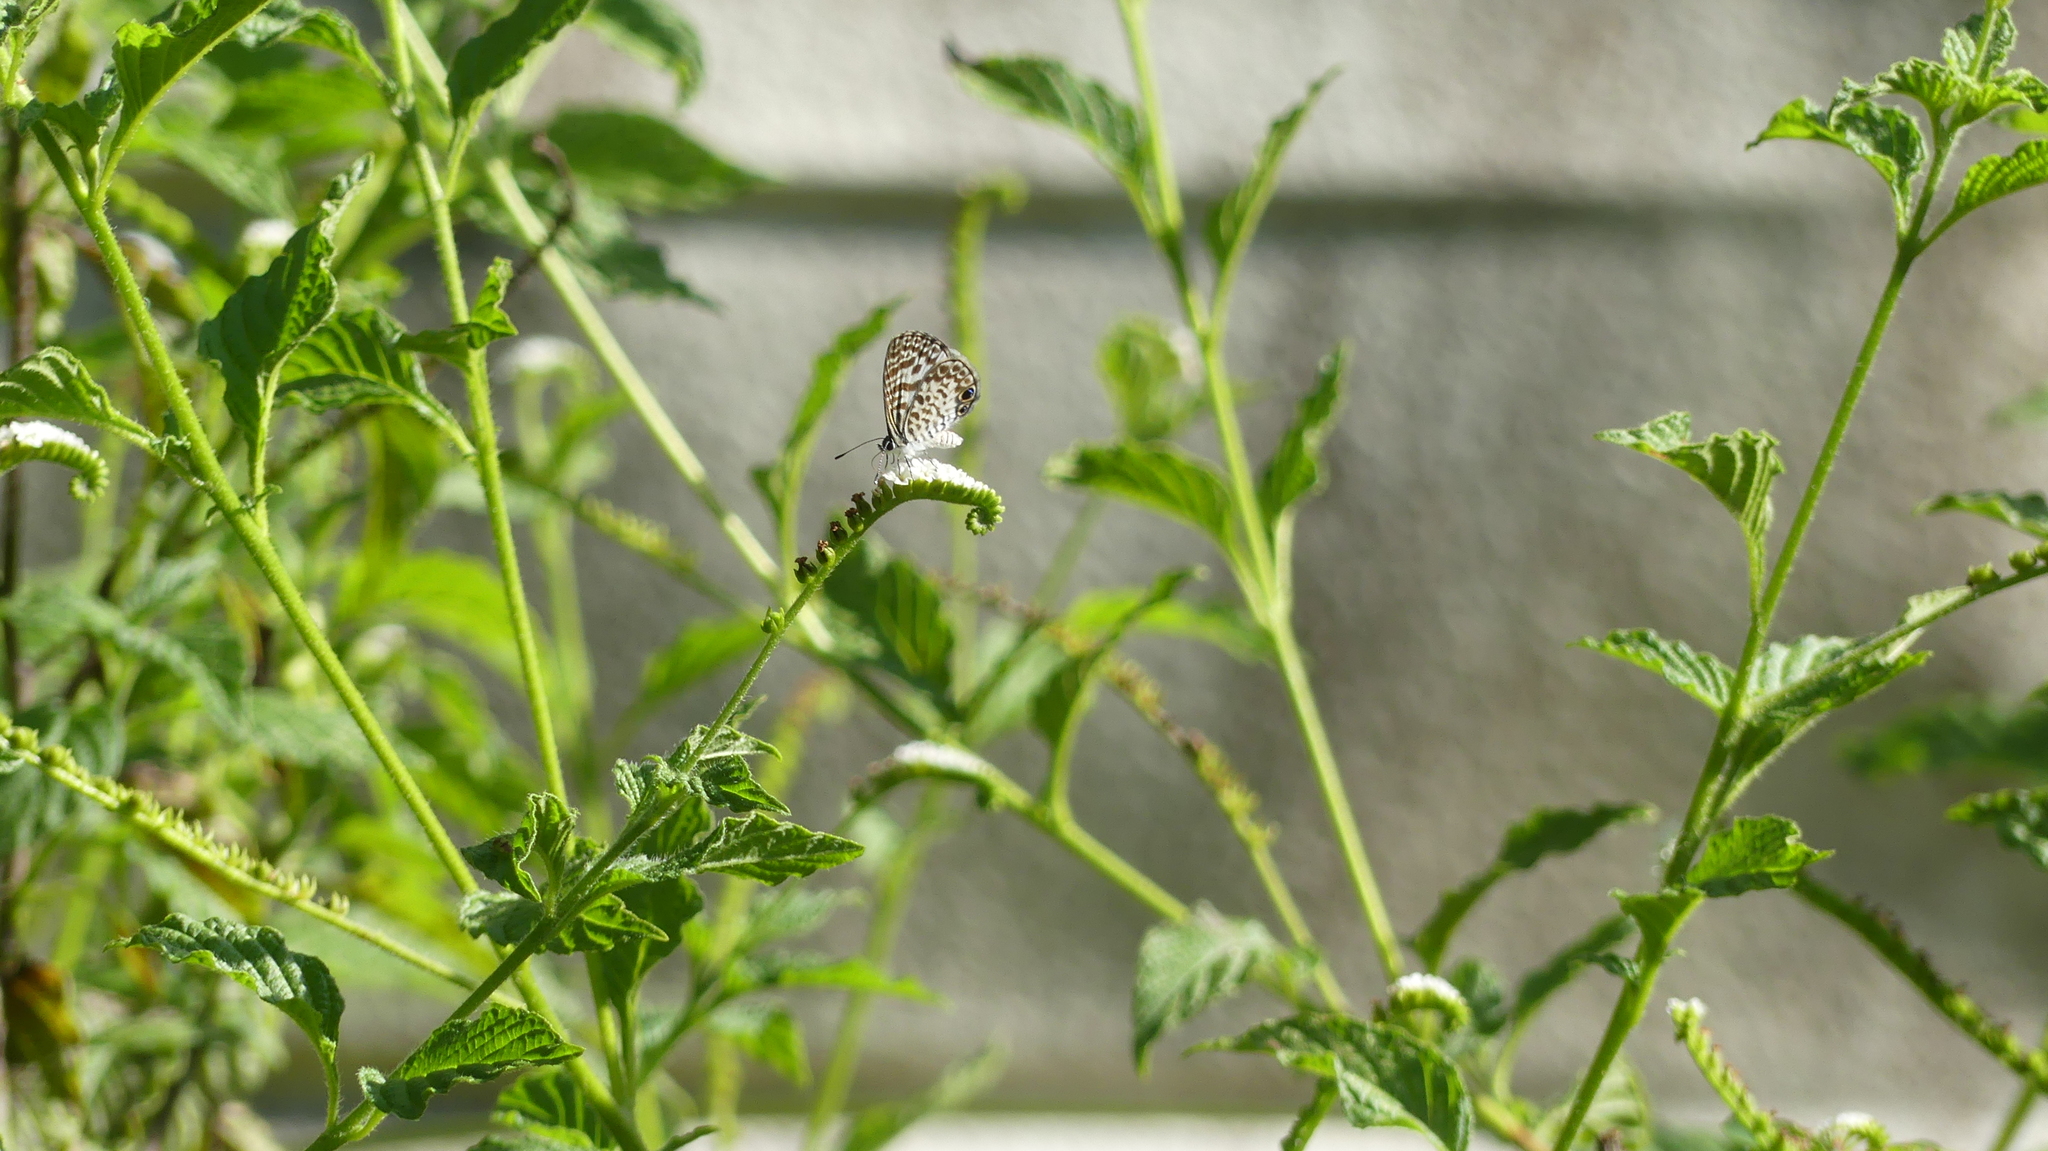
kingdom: Animalia
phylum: Arthropoda
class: Insecta
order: Lepidoptera
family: Lycaenidae
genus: Leptotes
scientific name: Leptotes cassius
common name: Cassius blue
